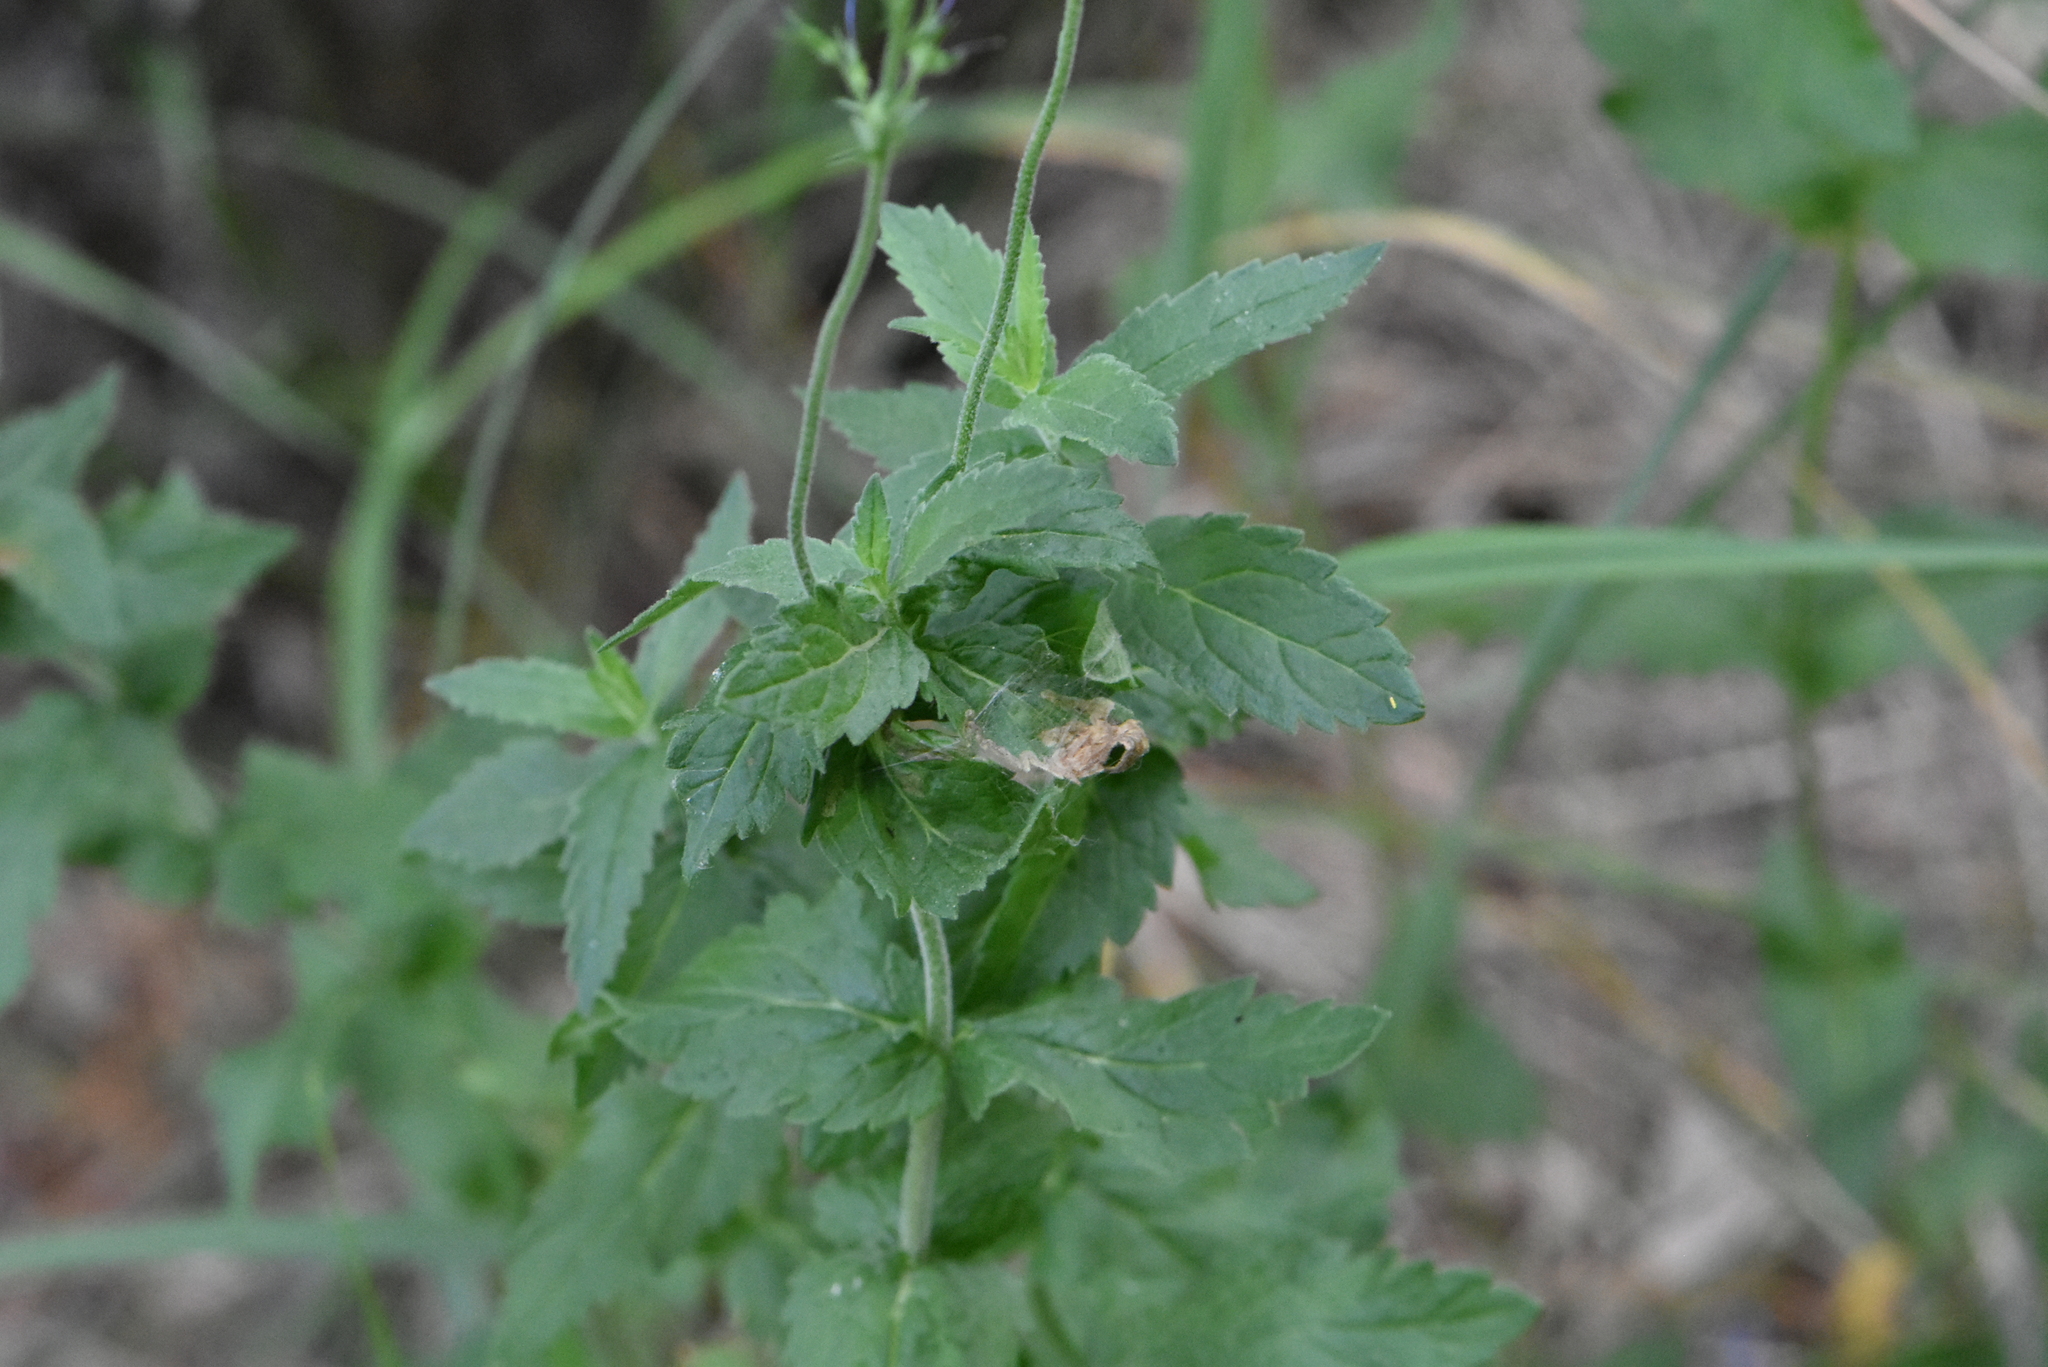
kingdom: Plantae
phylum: Tracheophyta
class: Magnoliopsida
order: Lamiales
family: Plantaginaceae
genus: Veronica
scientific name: Veronica teucrium
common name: Large speedwell
